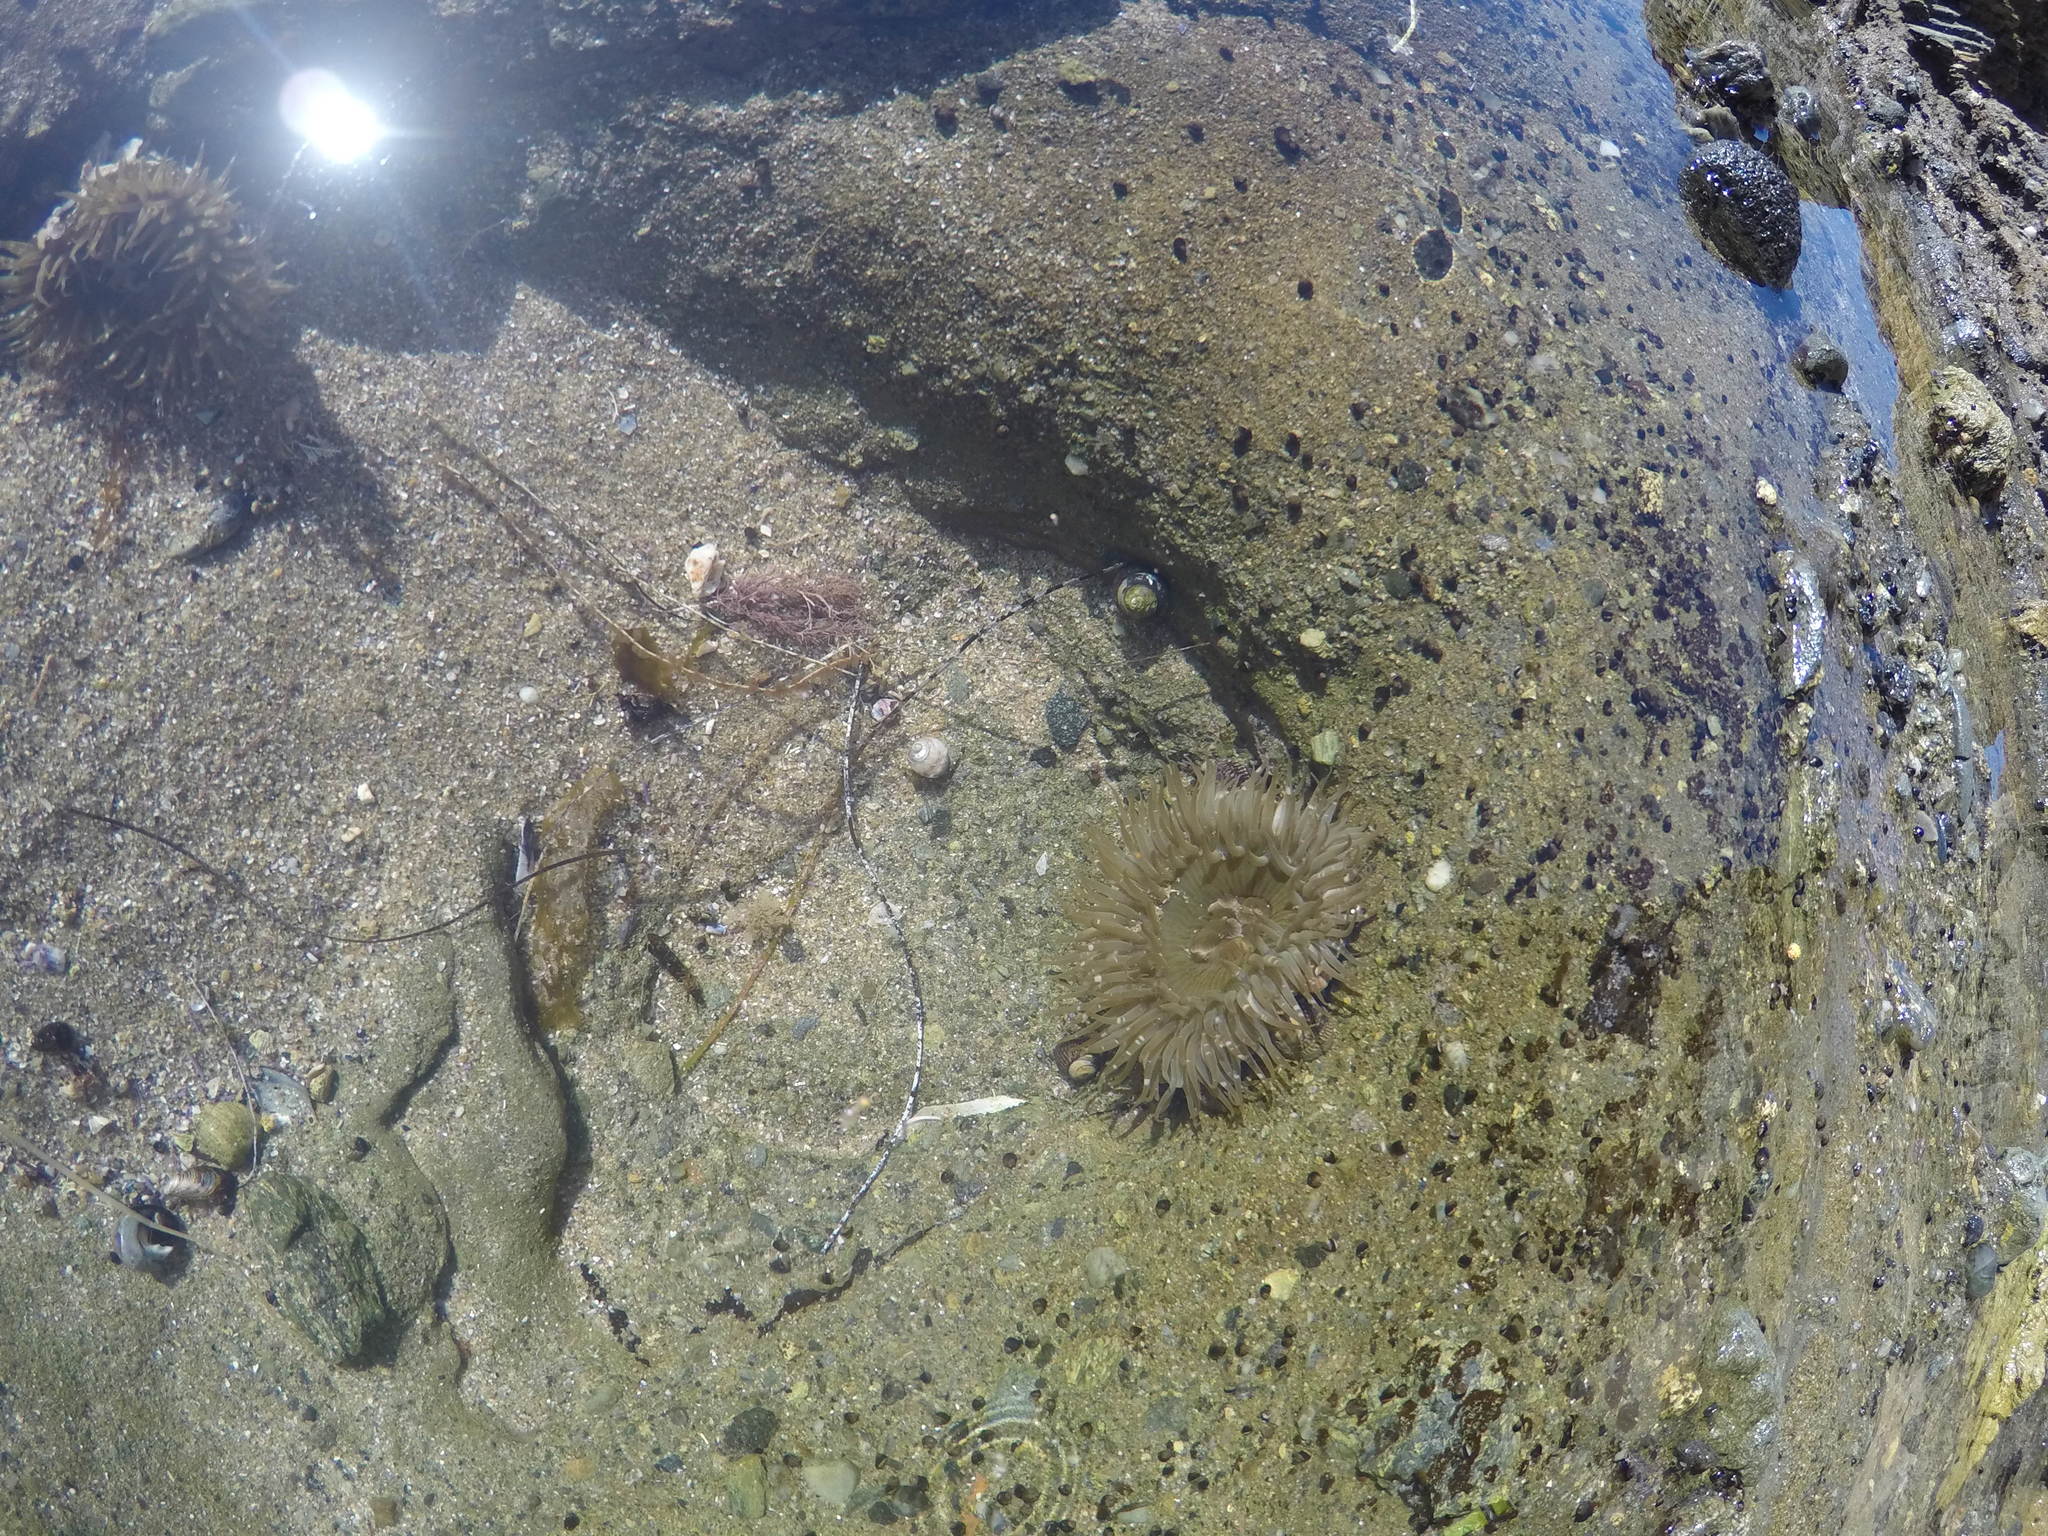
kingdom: Animalia
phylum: Cnidaria
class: Anthozoa
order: Actiniaria
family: Actiniidae
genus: Anthopleura
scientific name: Anthopleura sola
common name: Sun anemone
